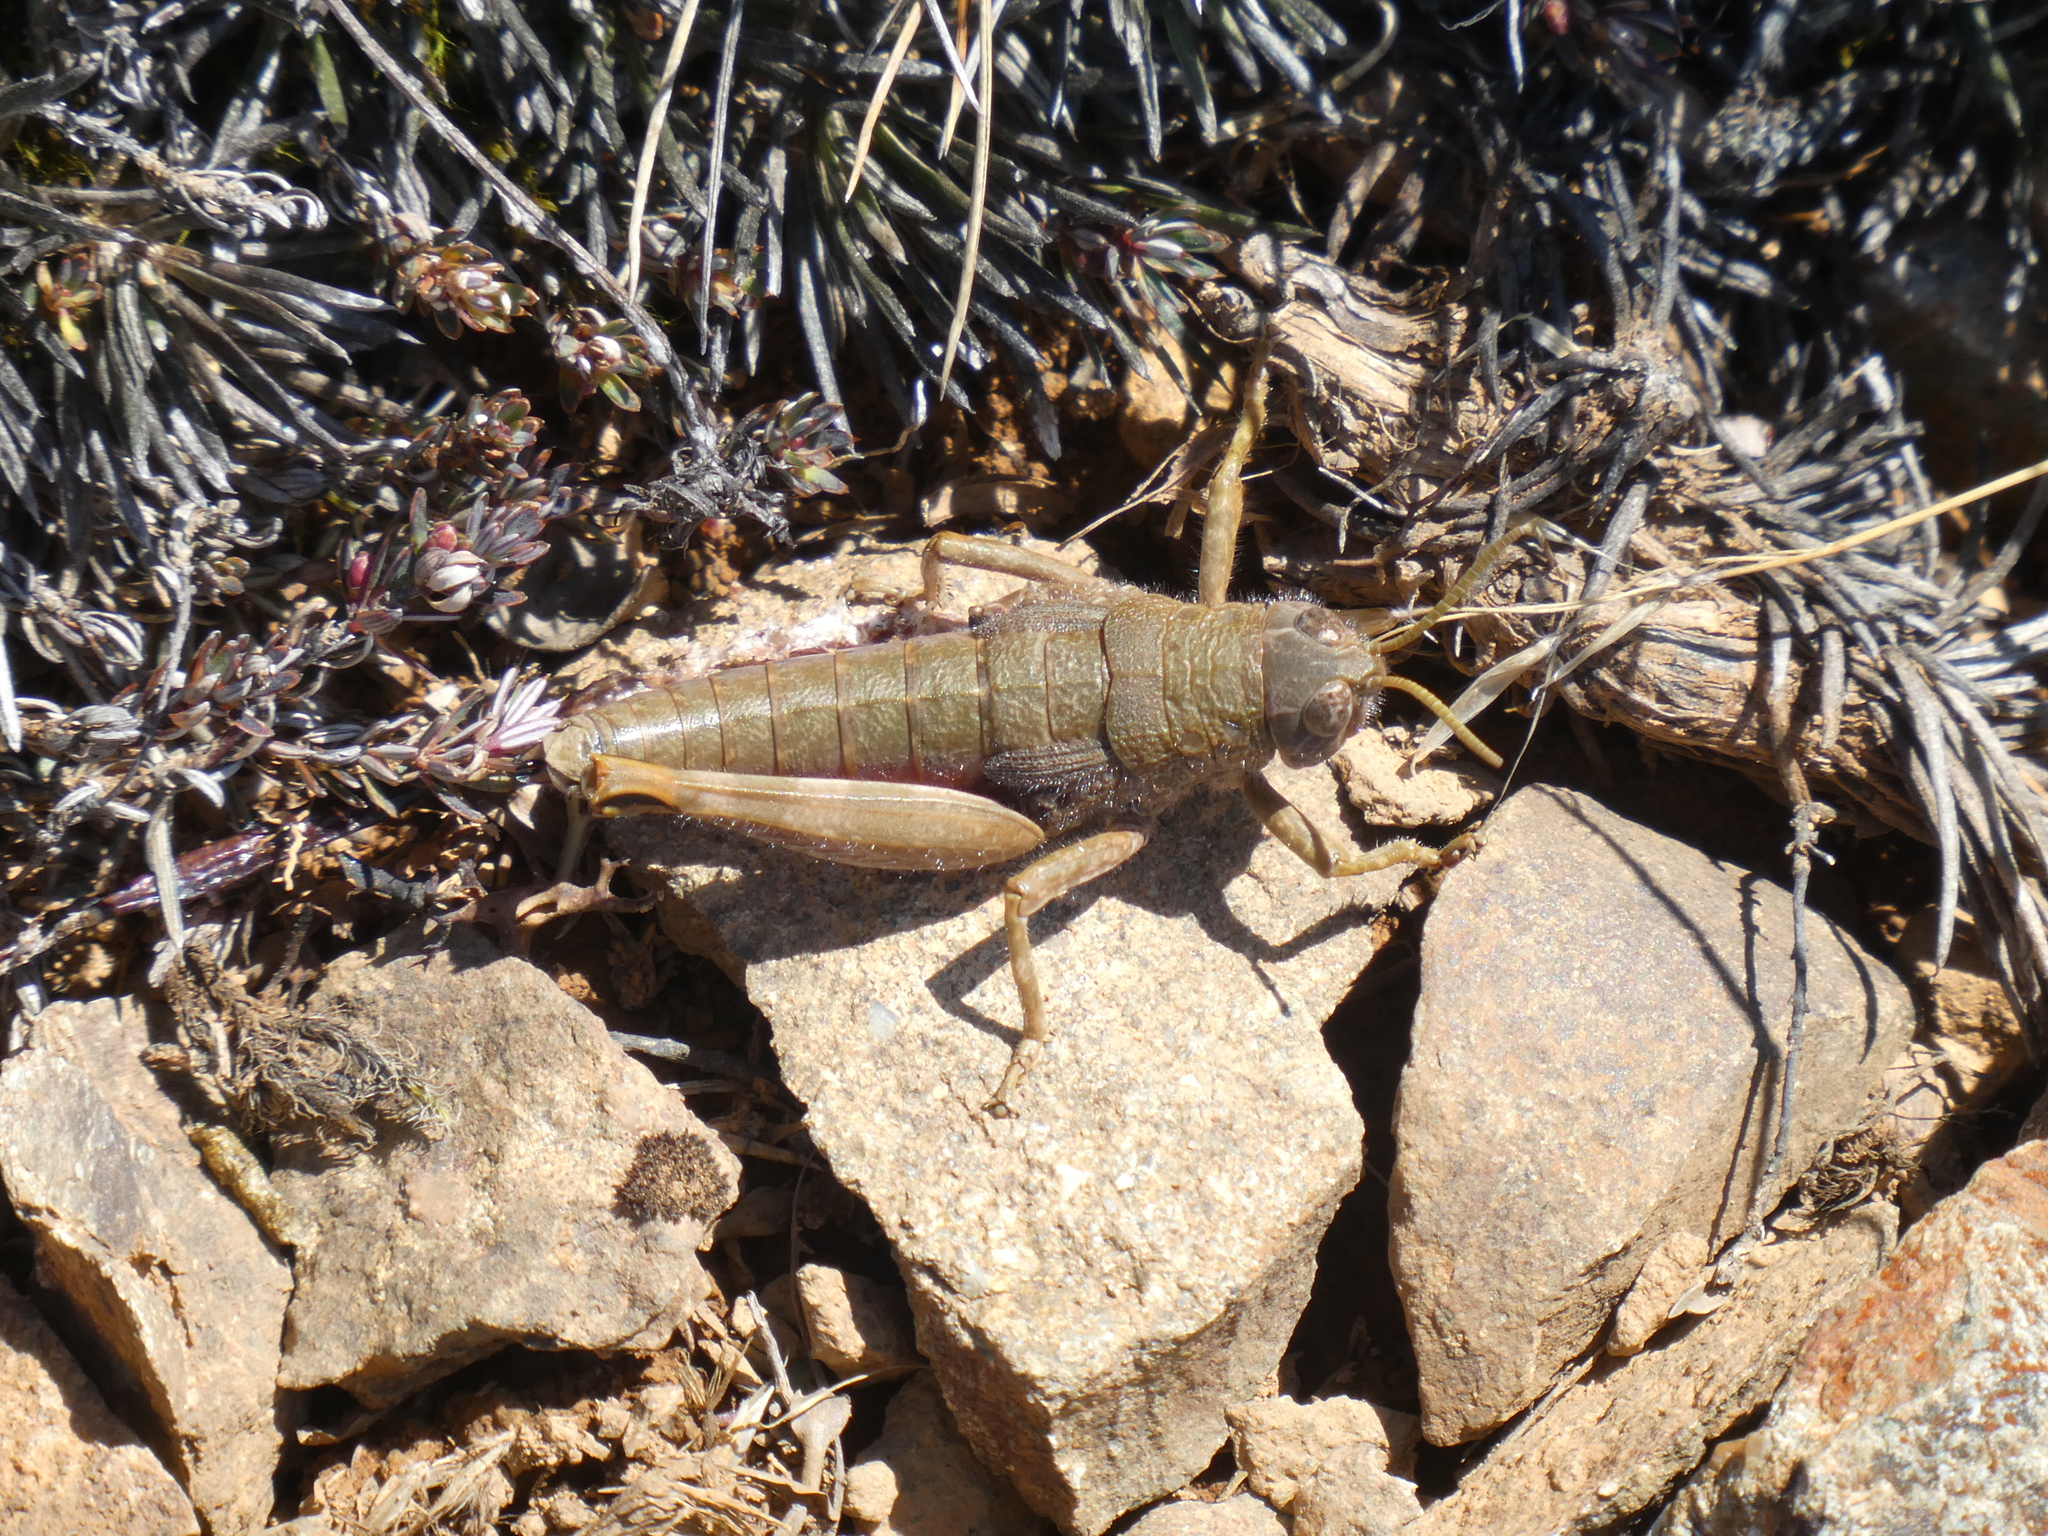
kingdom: Animalia
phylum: Arthropoda
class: Insecta
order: Orthoptera
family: Acrididae
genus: Sigaus
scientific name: Sigaus
